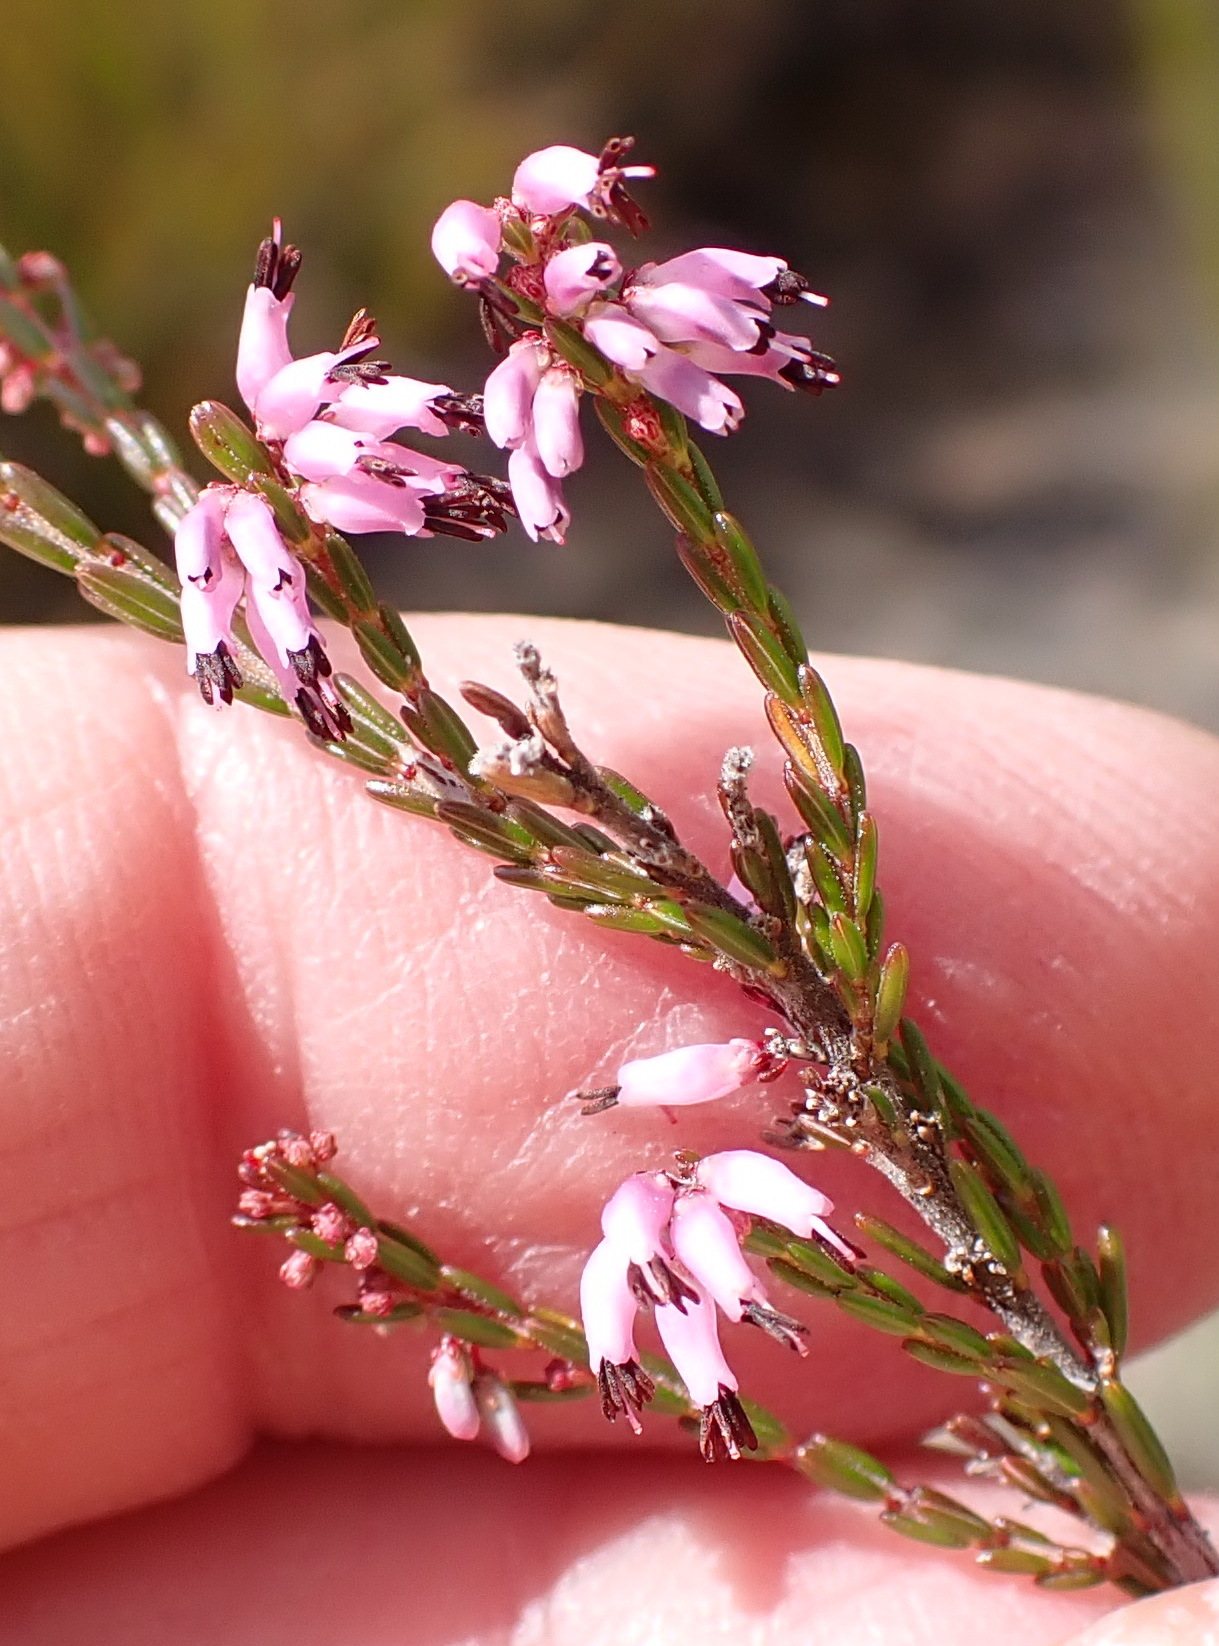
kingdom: Plantae
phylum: Tracheophyta
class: Magnoliopsida
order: Ericales
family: Ericaceae
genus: Erica
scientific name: Erica rosacea
